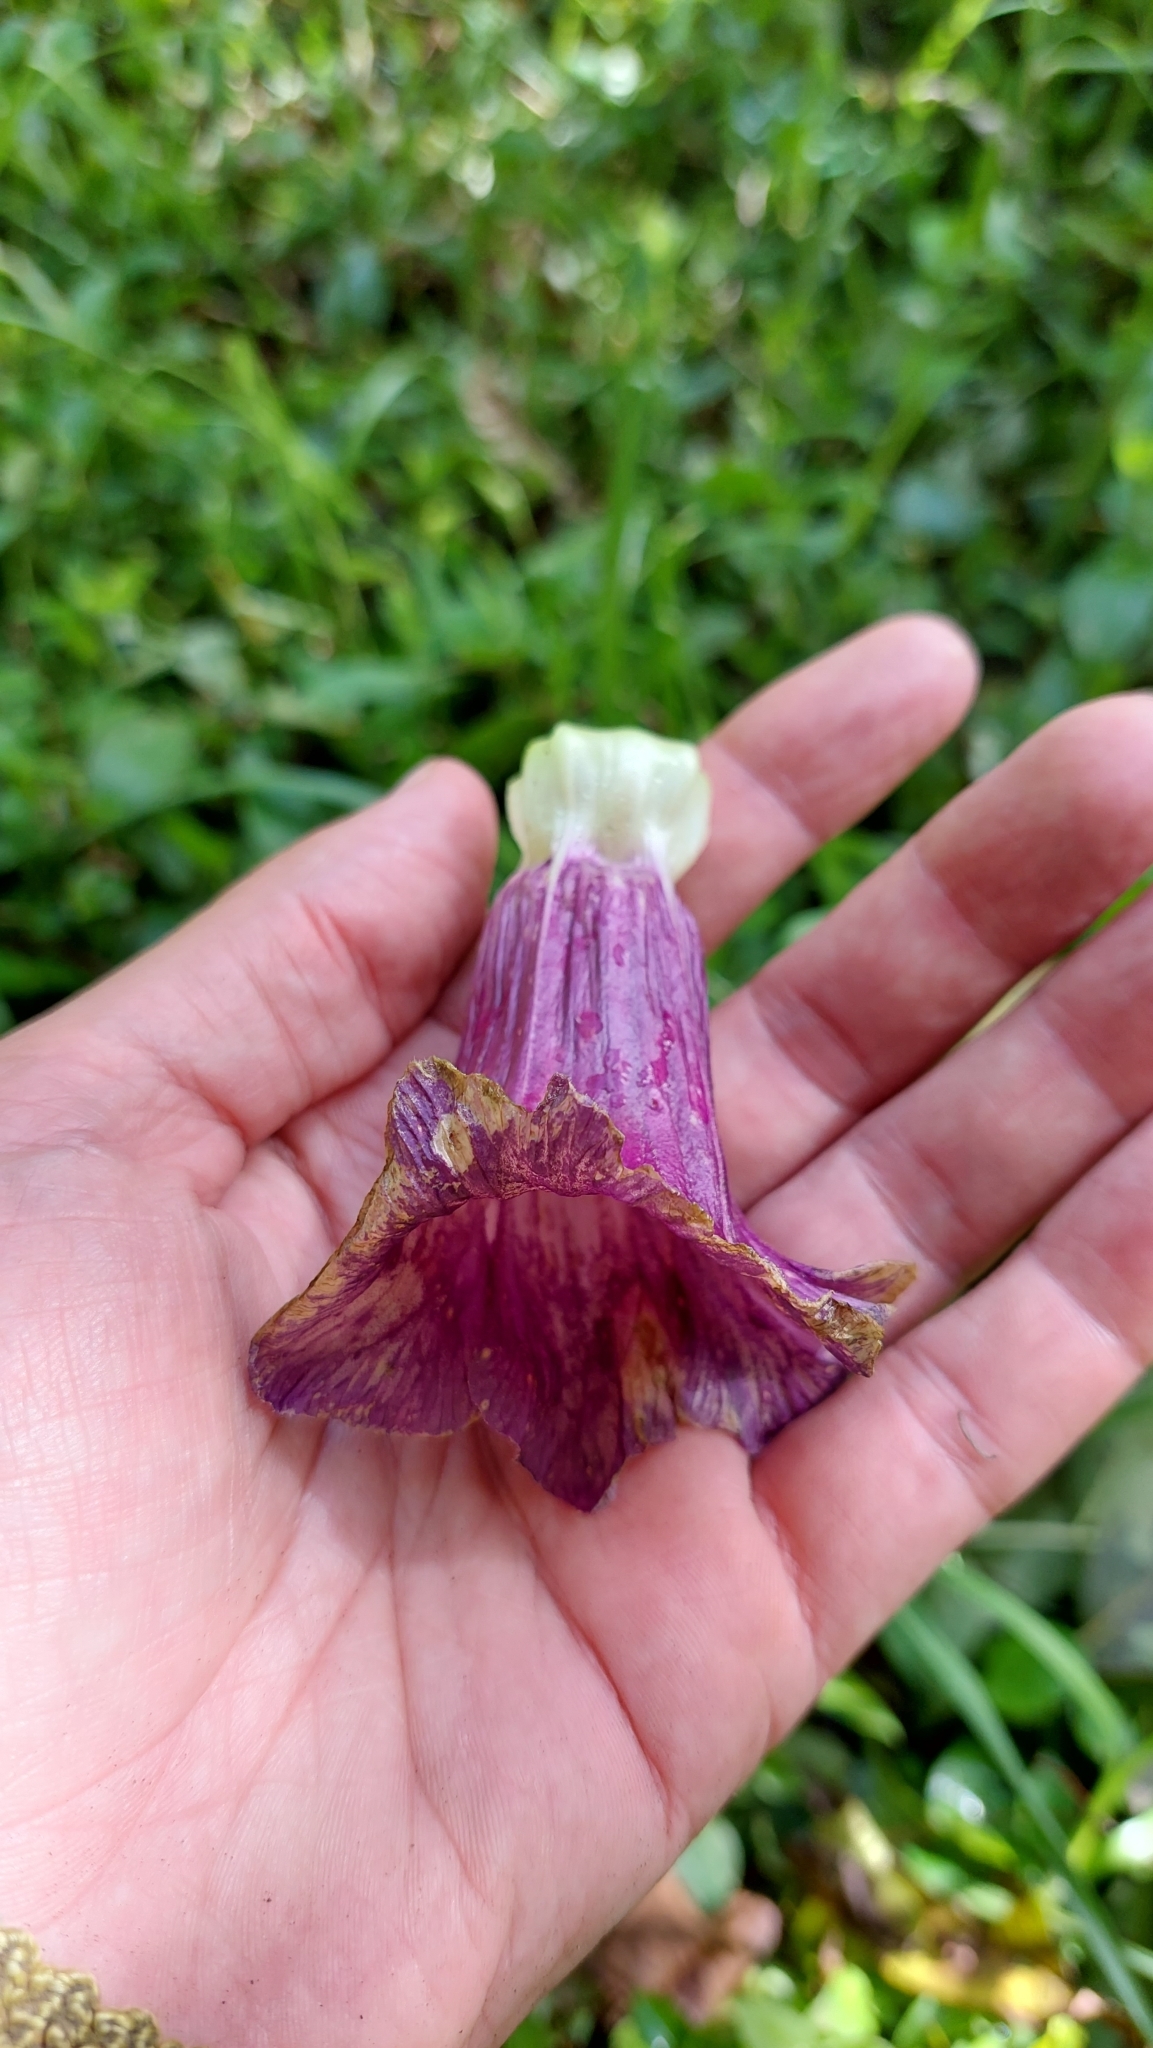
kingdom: Plantae
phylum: Tracheophyta
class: Magnoliopsida
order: Ericales
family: Polemoniaceae
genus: Cobaea
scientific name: Cobaea scandens
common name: Cup-and-saucer-vine
